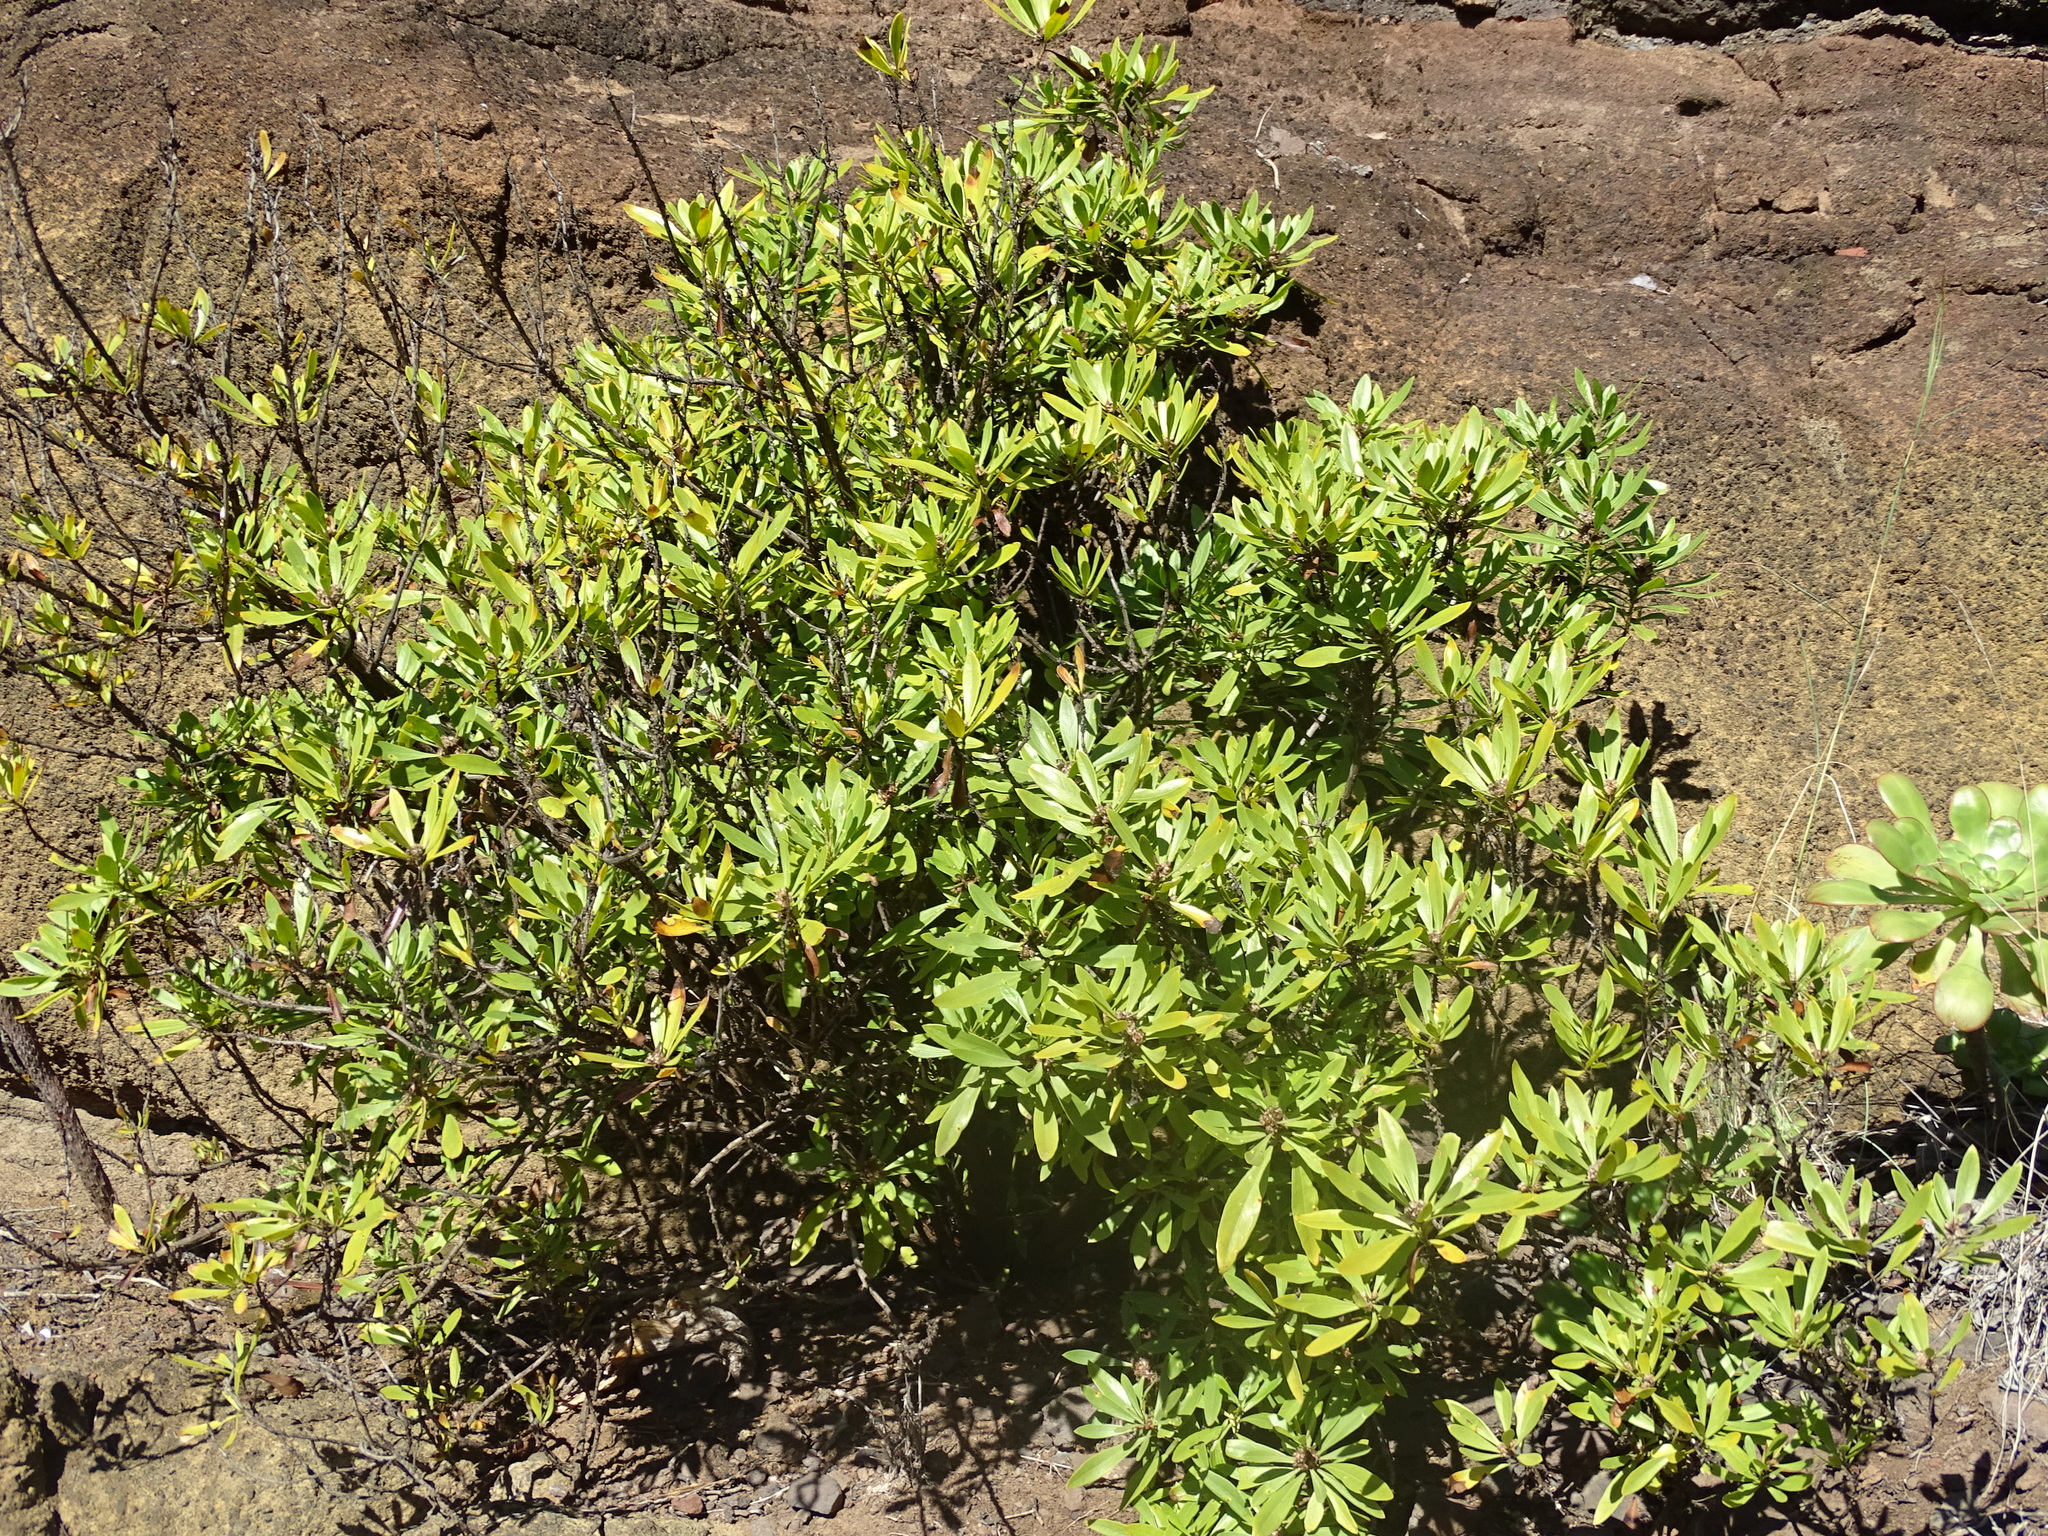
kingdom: Plantae
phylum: Tracheophyta
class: Magnoliopsida
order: Lamiales
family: Plantaginaceae
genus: Globularia
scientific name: Globularia salicina
